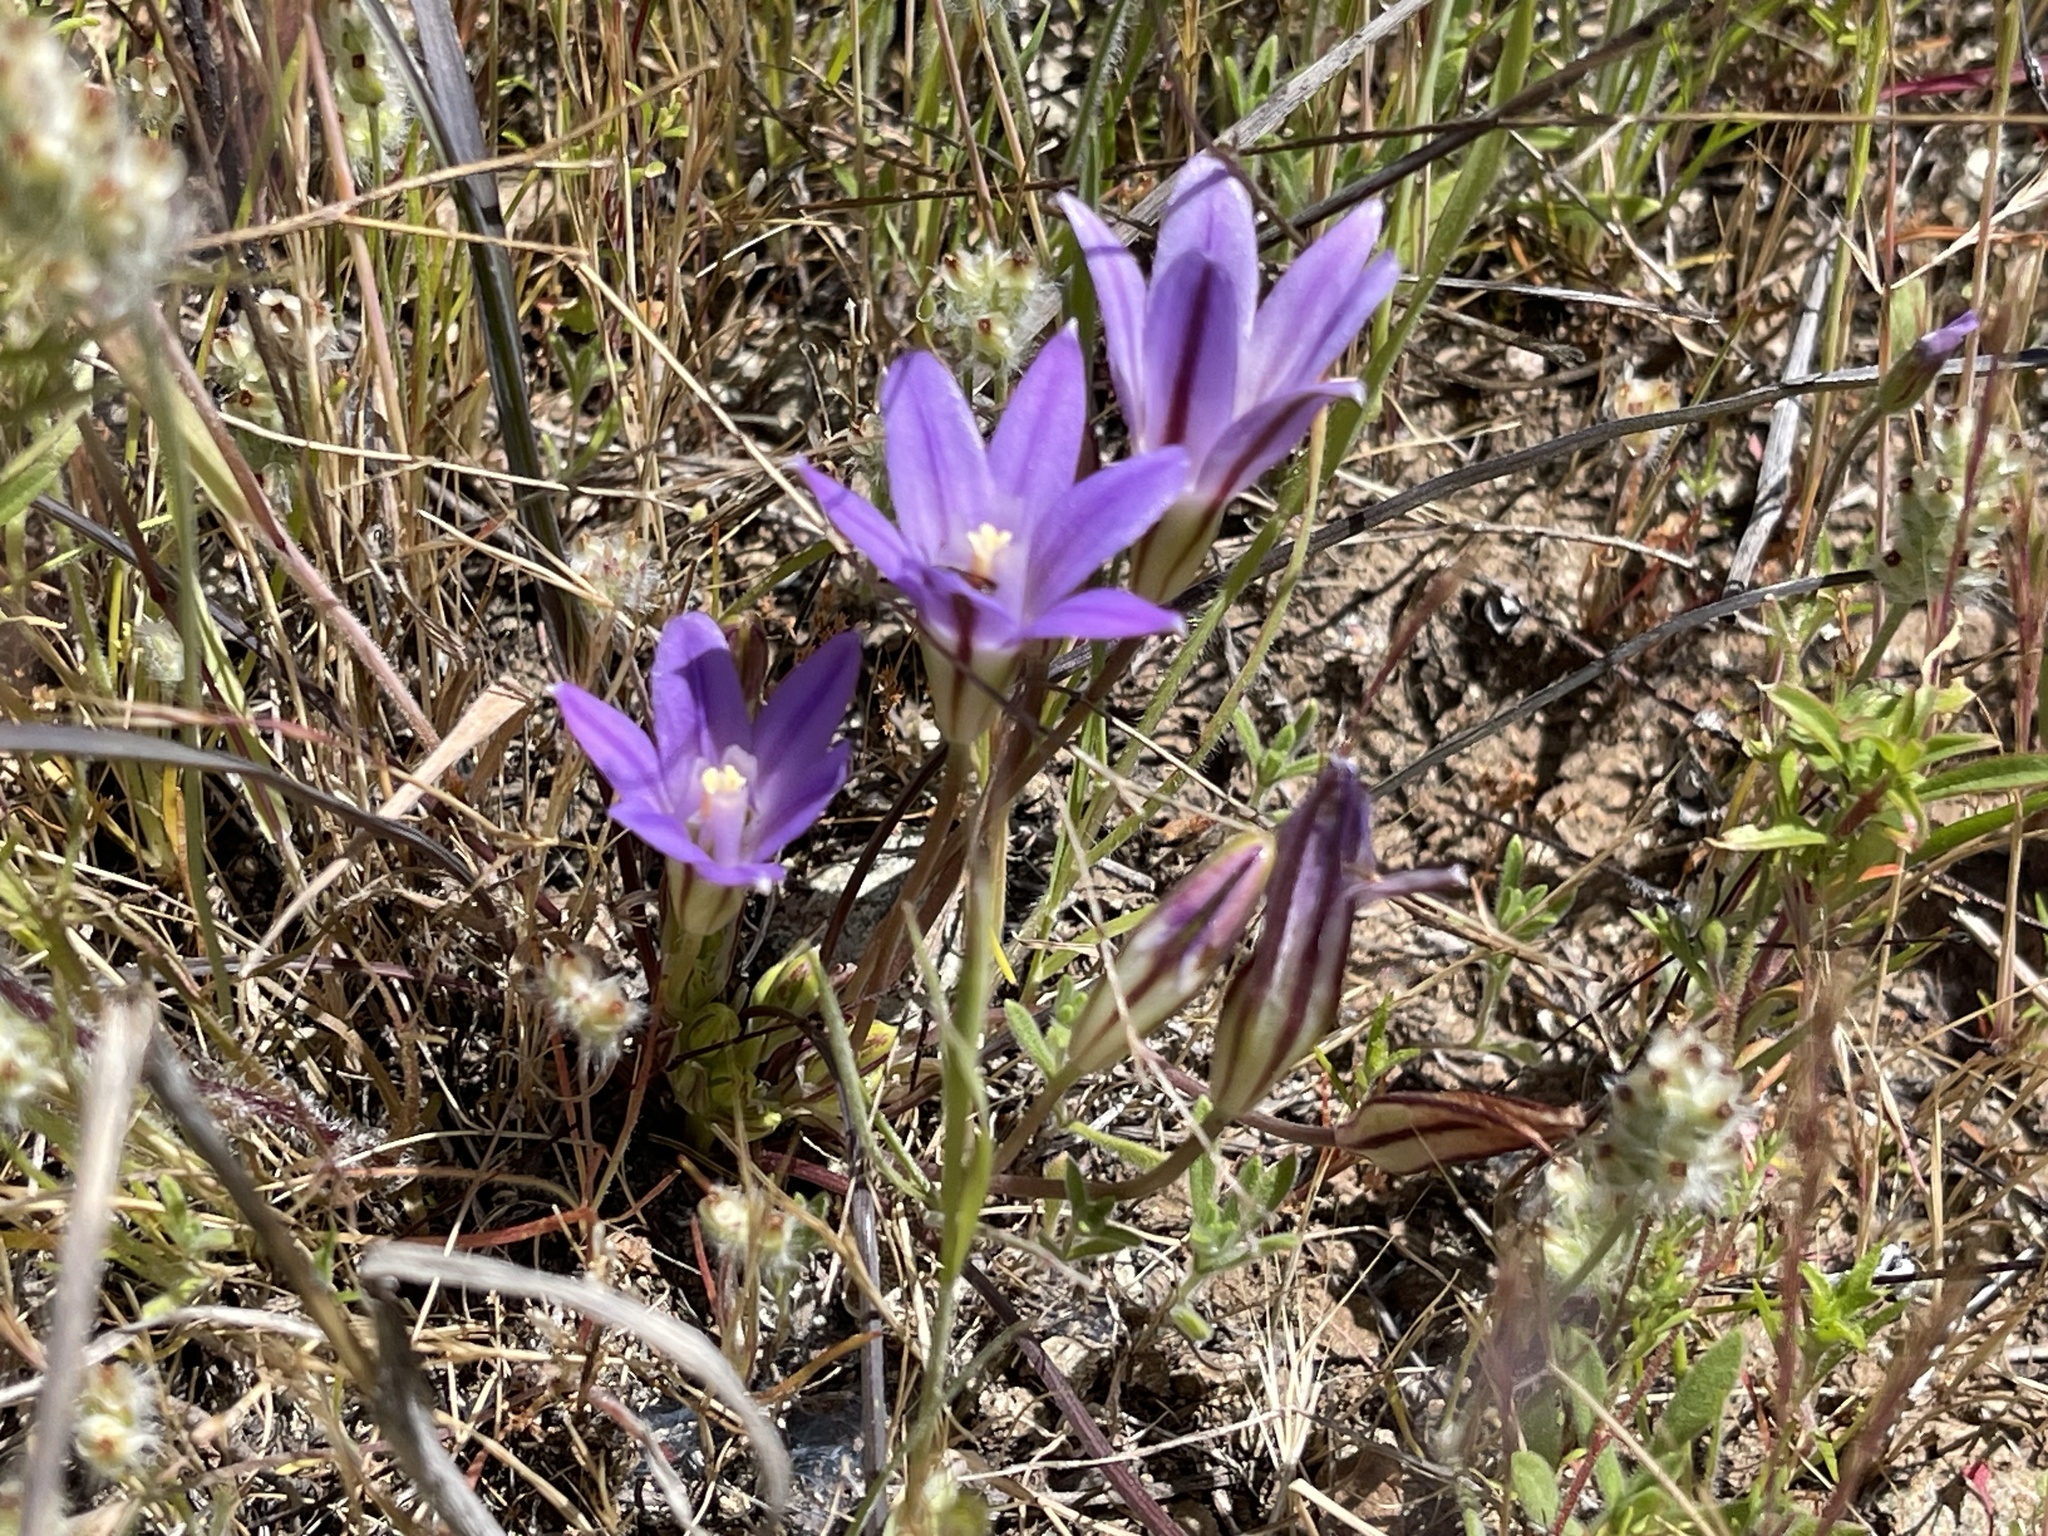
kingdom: Plantae
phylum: Tracheophyta
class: Liliopsida
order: Asparagales
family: Asparagaceae
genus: Brodiaea
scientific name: Brodiaea terrestris
